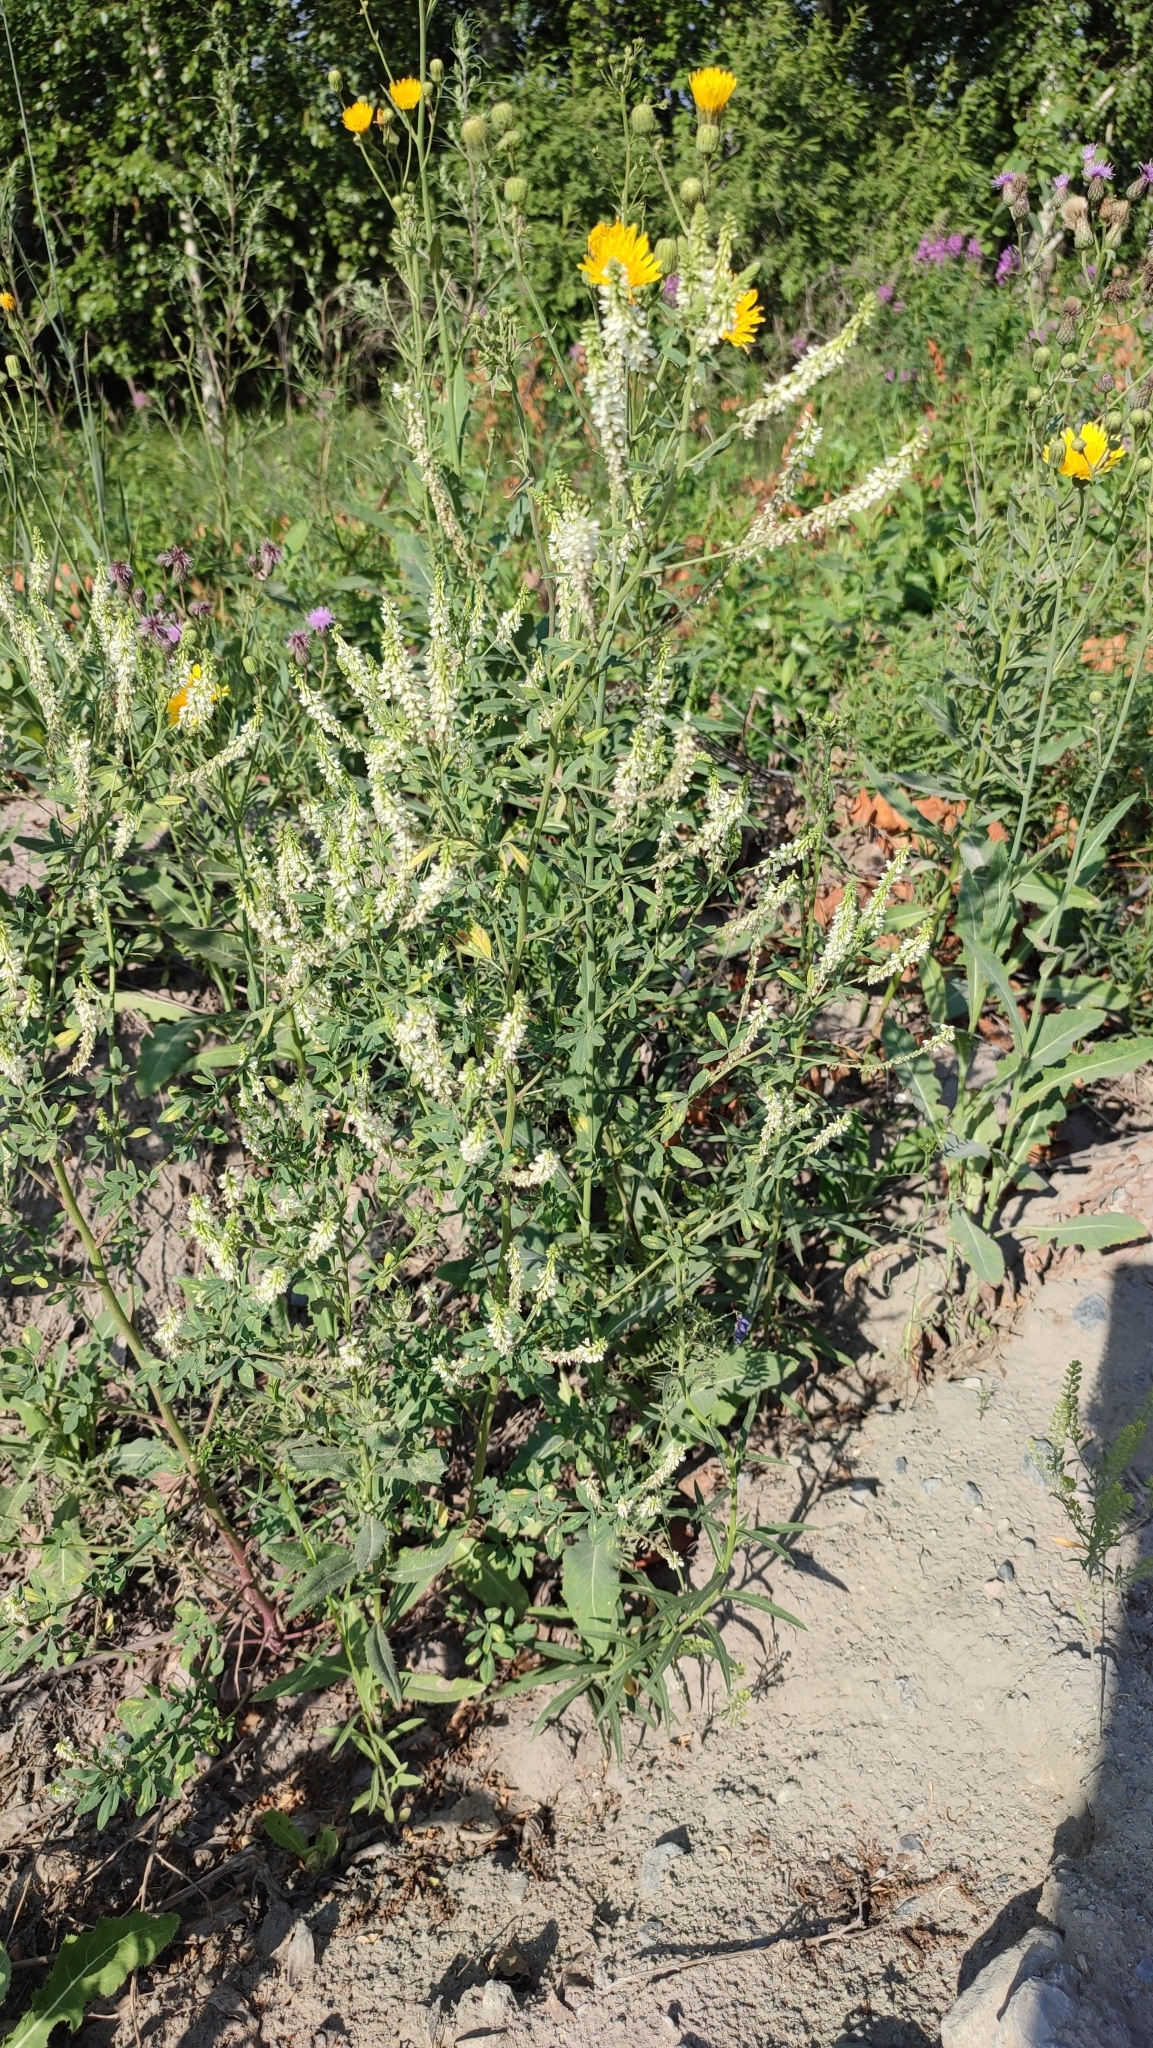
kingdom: Plantae
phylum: Tracheophyta
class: Magnoliopsida
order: Fabales
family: Fabaceae
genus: Melilotus
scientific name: Melilotus albus
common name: White melilot
